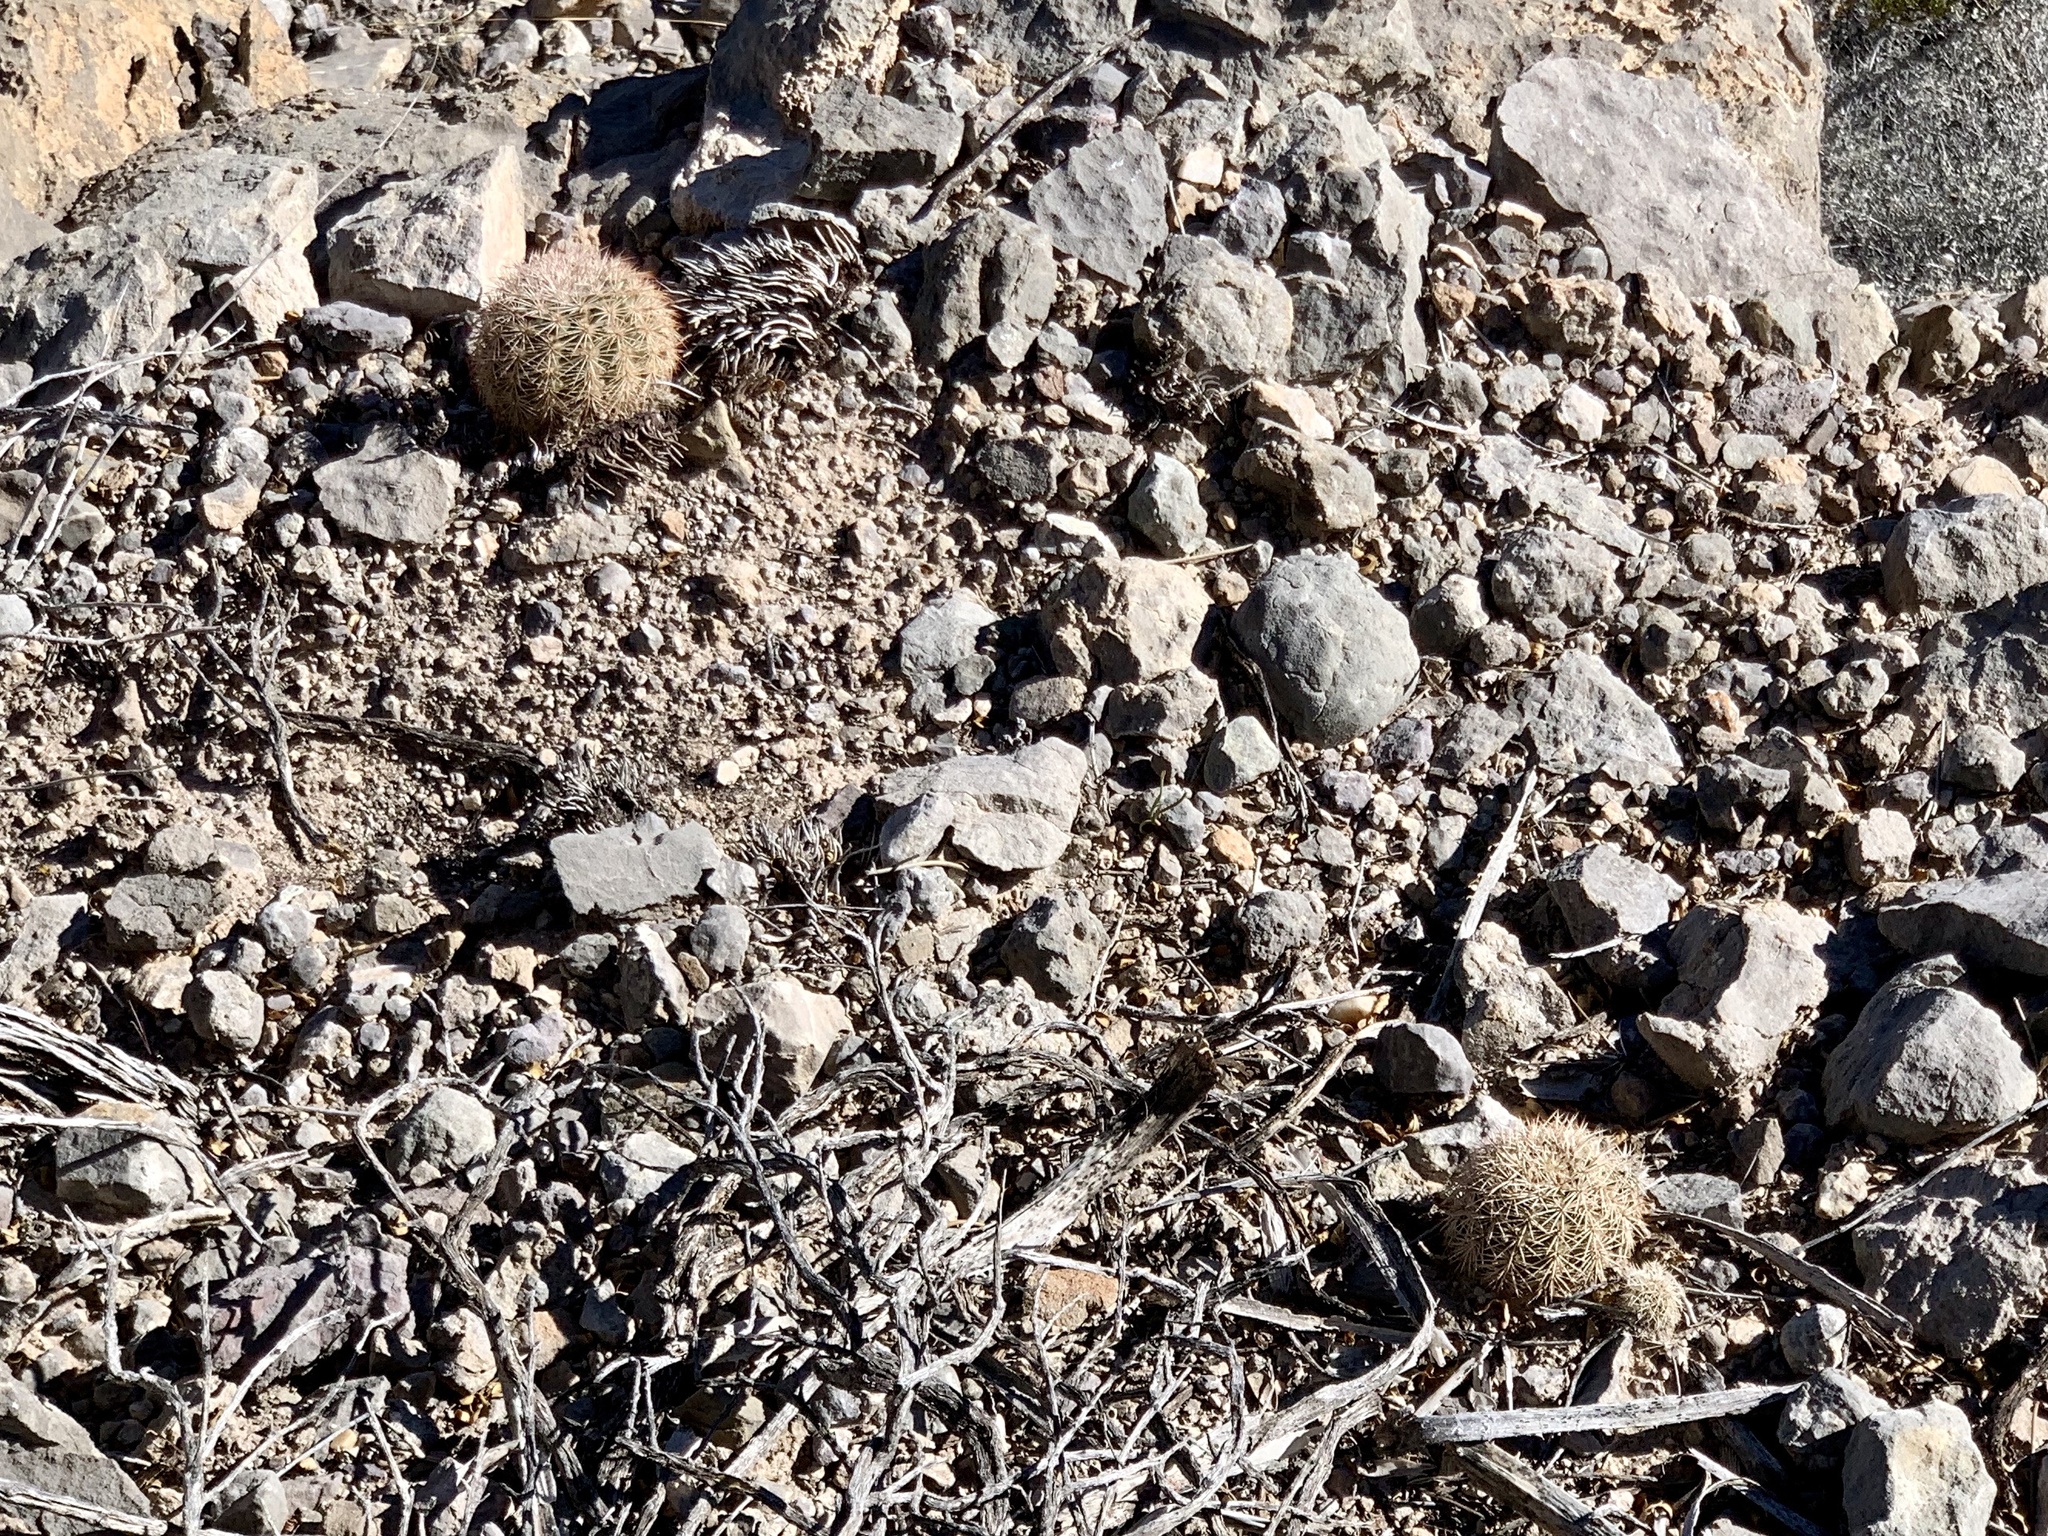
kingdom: Plantae
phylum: Tracheophyta
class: Magnoliopsida
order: Caryophyllales
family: Cactaceae
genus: Echinocereus
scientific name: Echinocereus dasyacanthus
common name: Spiny hedgehog cactus
